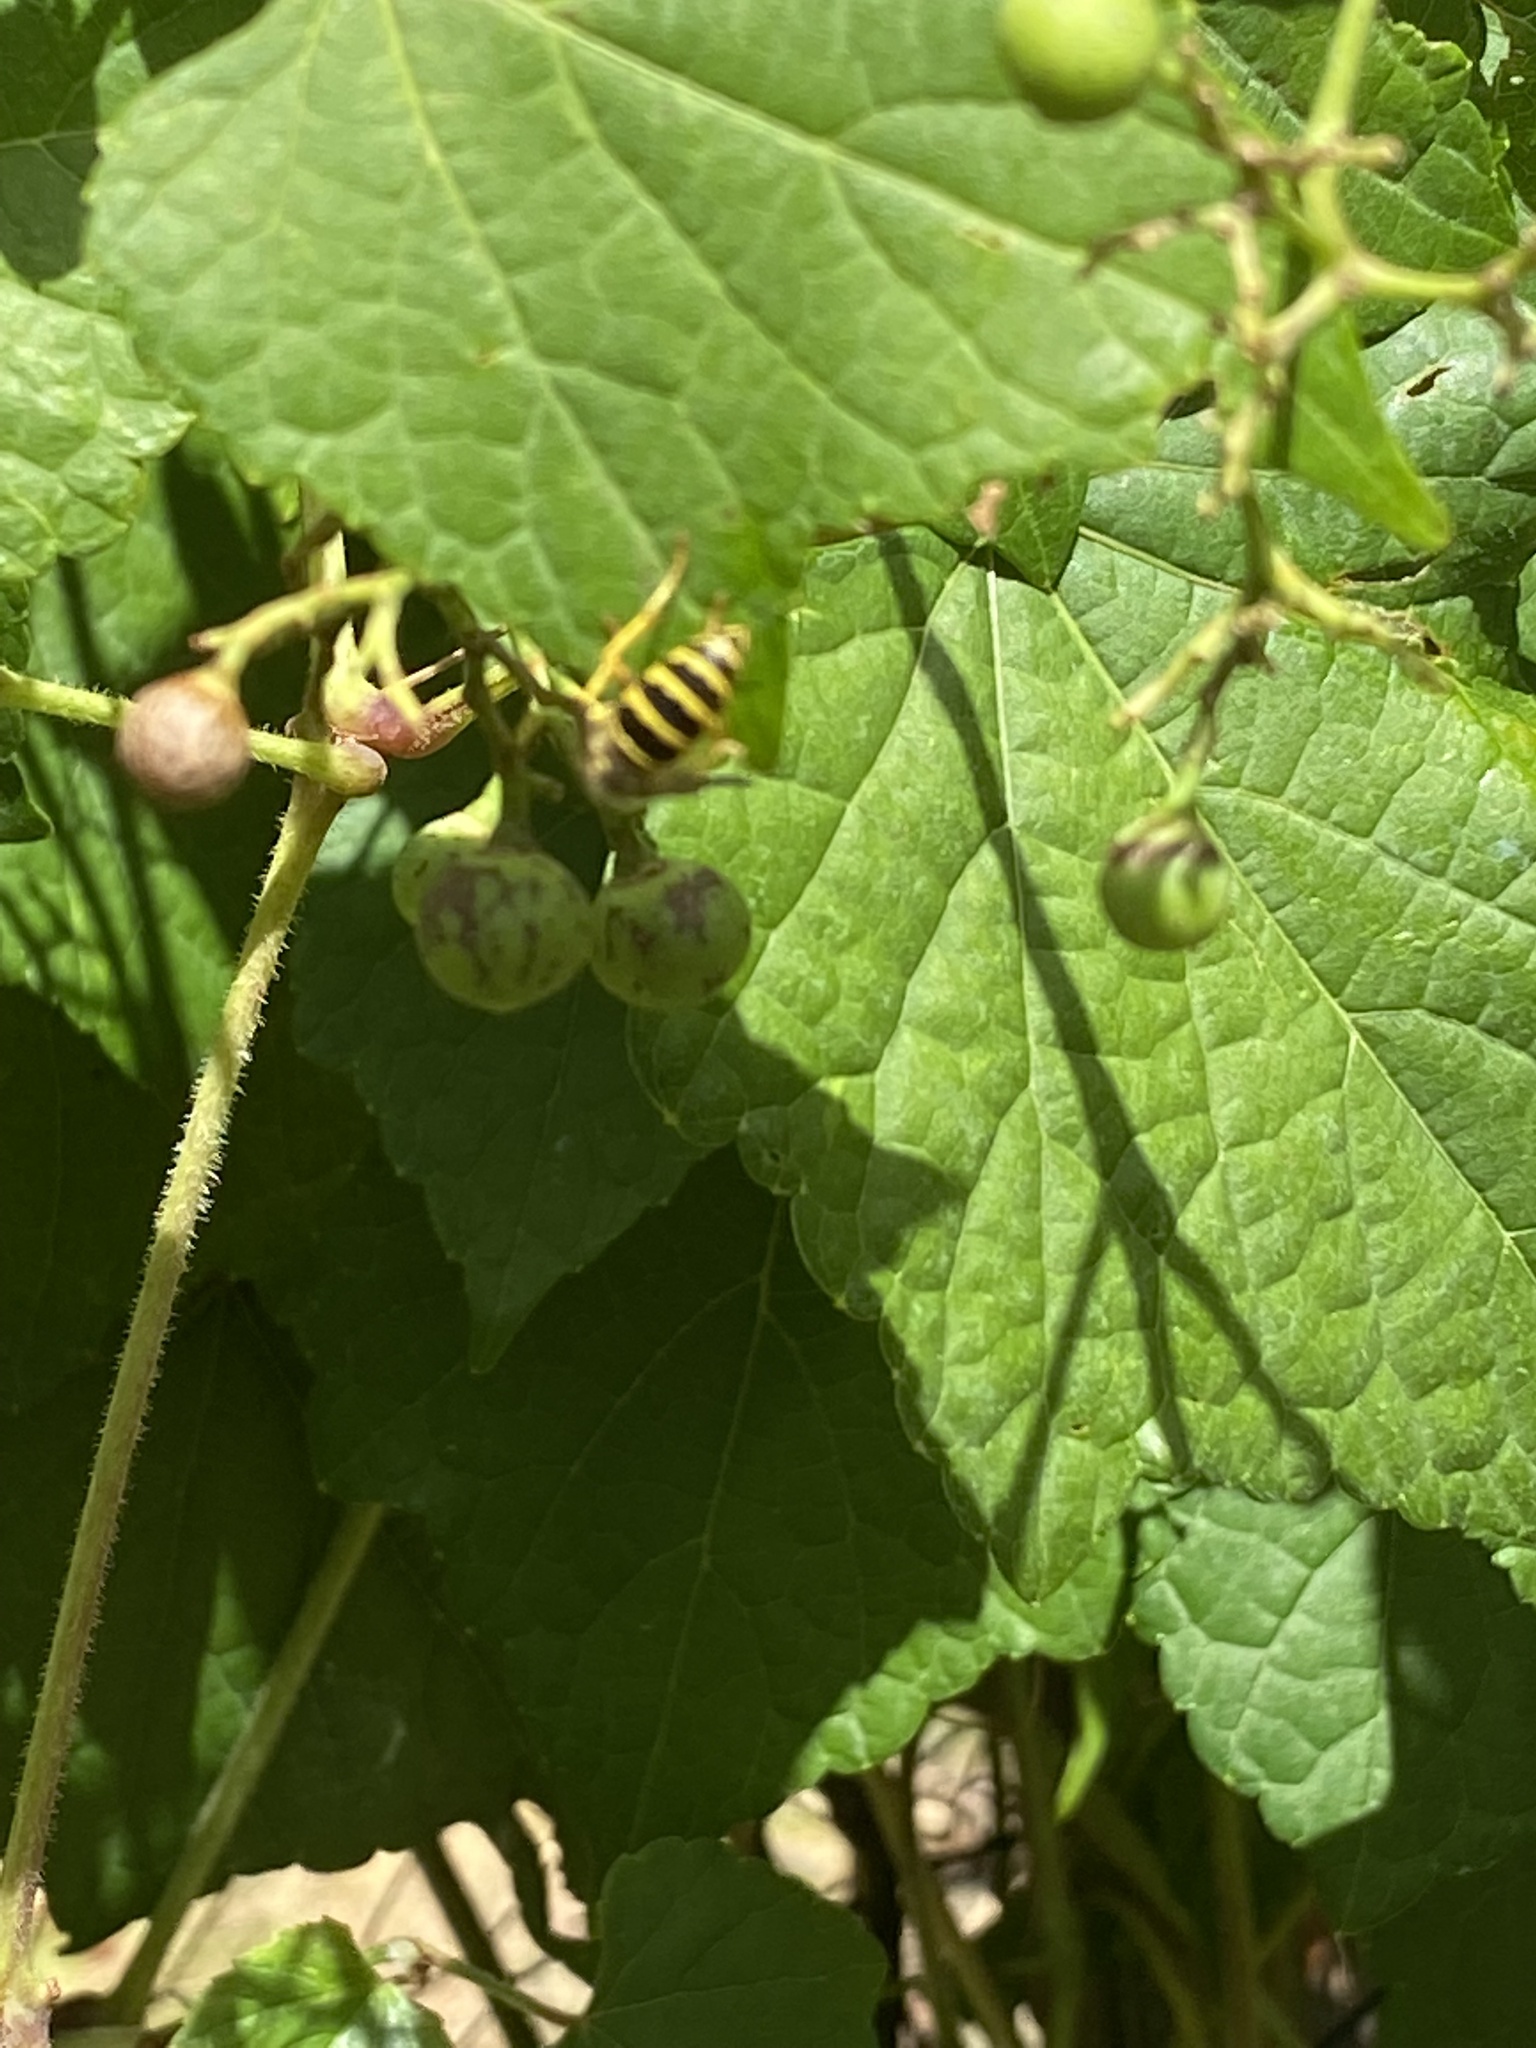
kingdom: Animalia
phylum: Arthropoda
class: Insecta
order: Hymenoptera
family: Vespidae
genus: Vespula
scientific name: Vespula maculifrons
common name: Eastern yellowjacket
